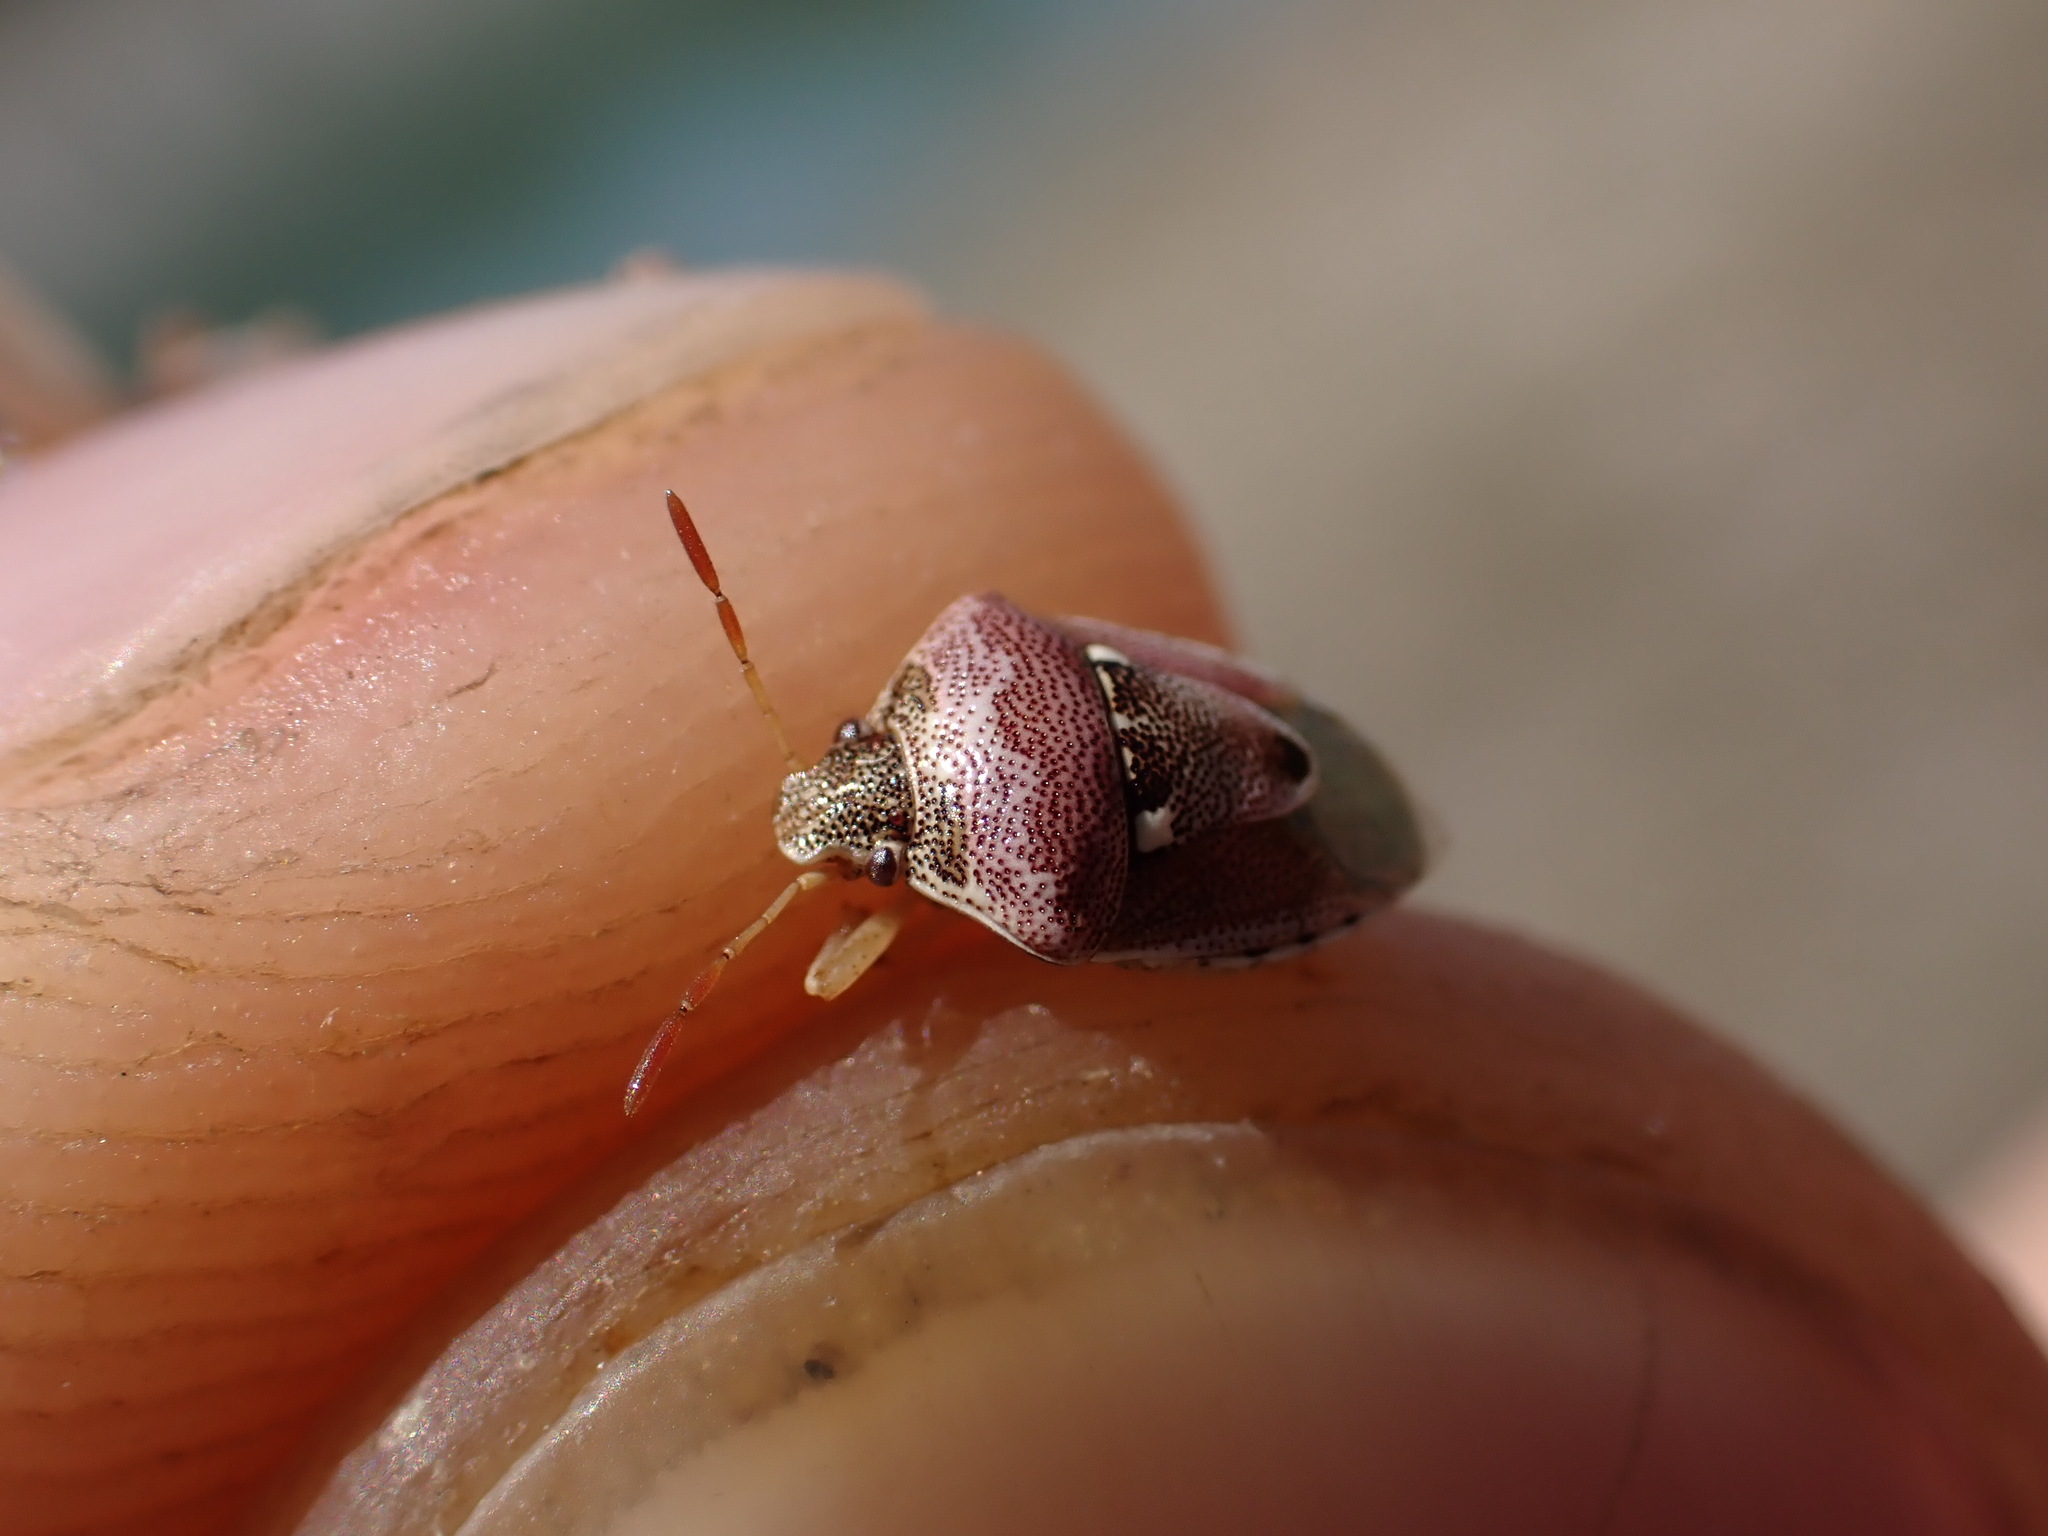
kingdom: Animalia
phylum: Arthropoda
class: Insecta
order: Hemiptera
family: Pentatomidae
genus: Stagonomus
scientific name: Stagonomus bipunctatus
